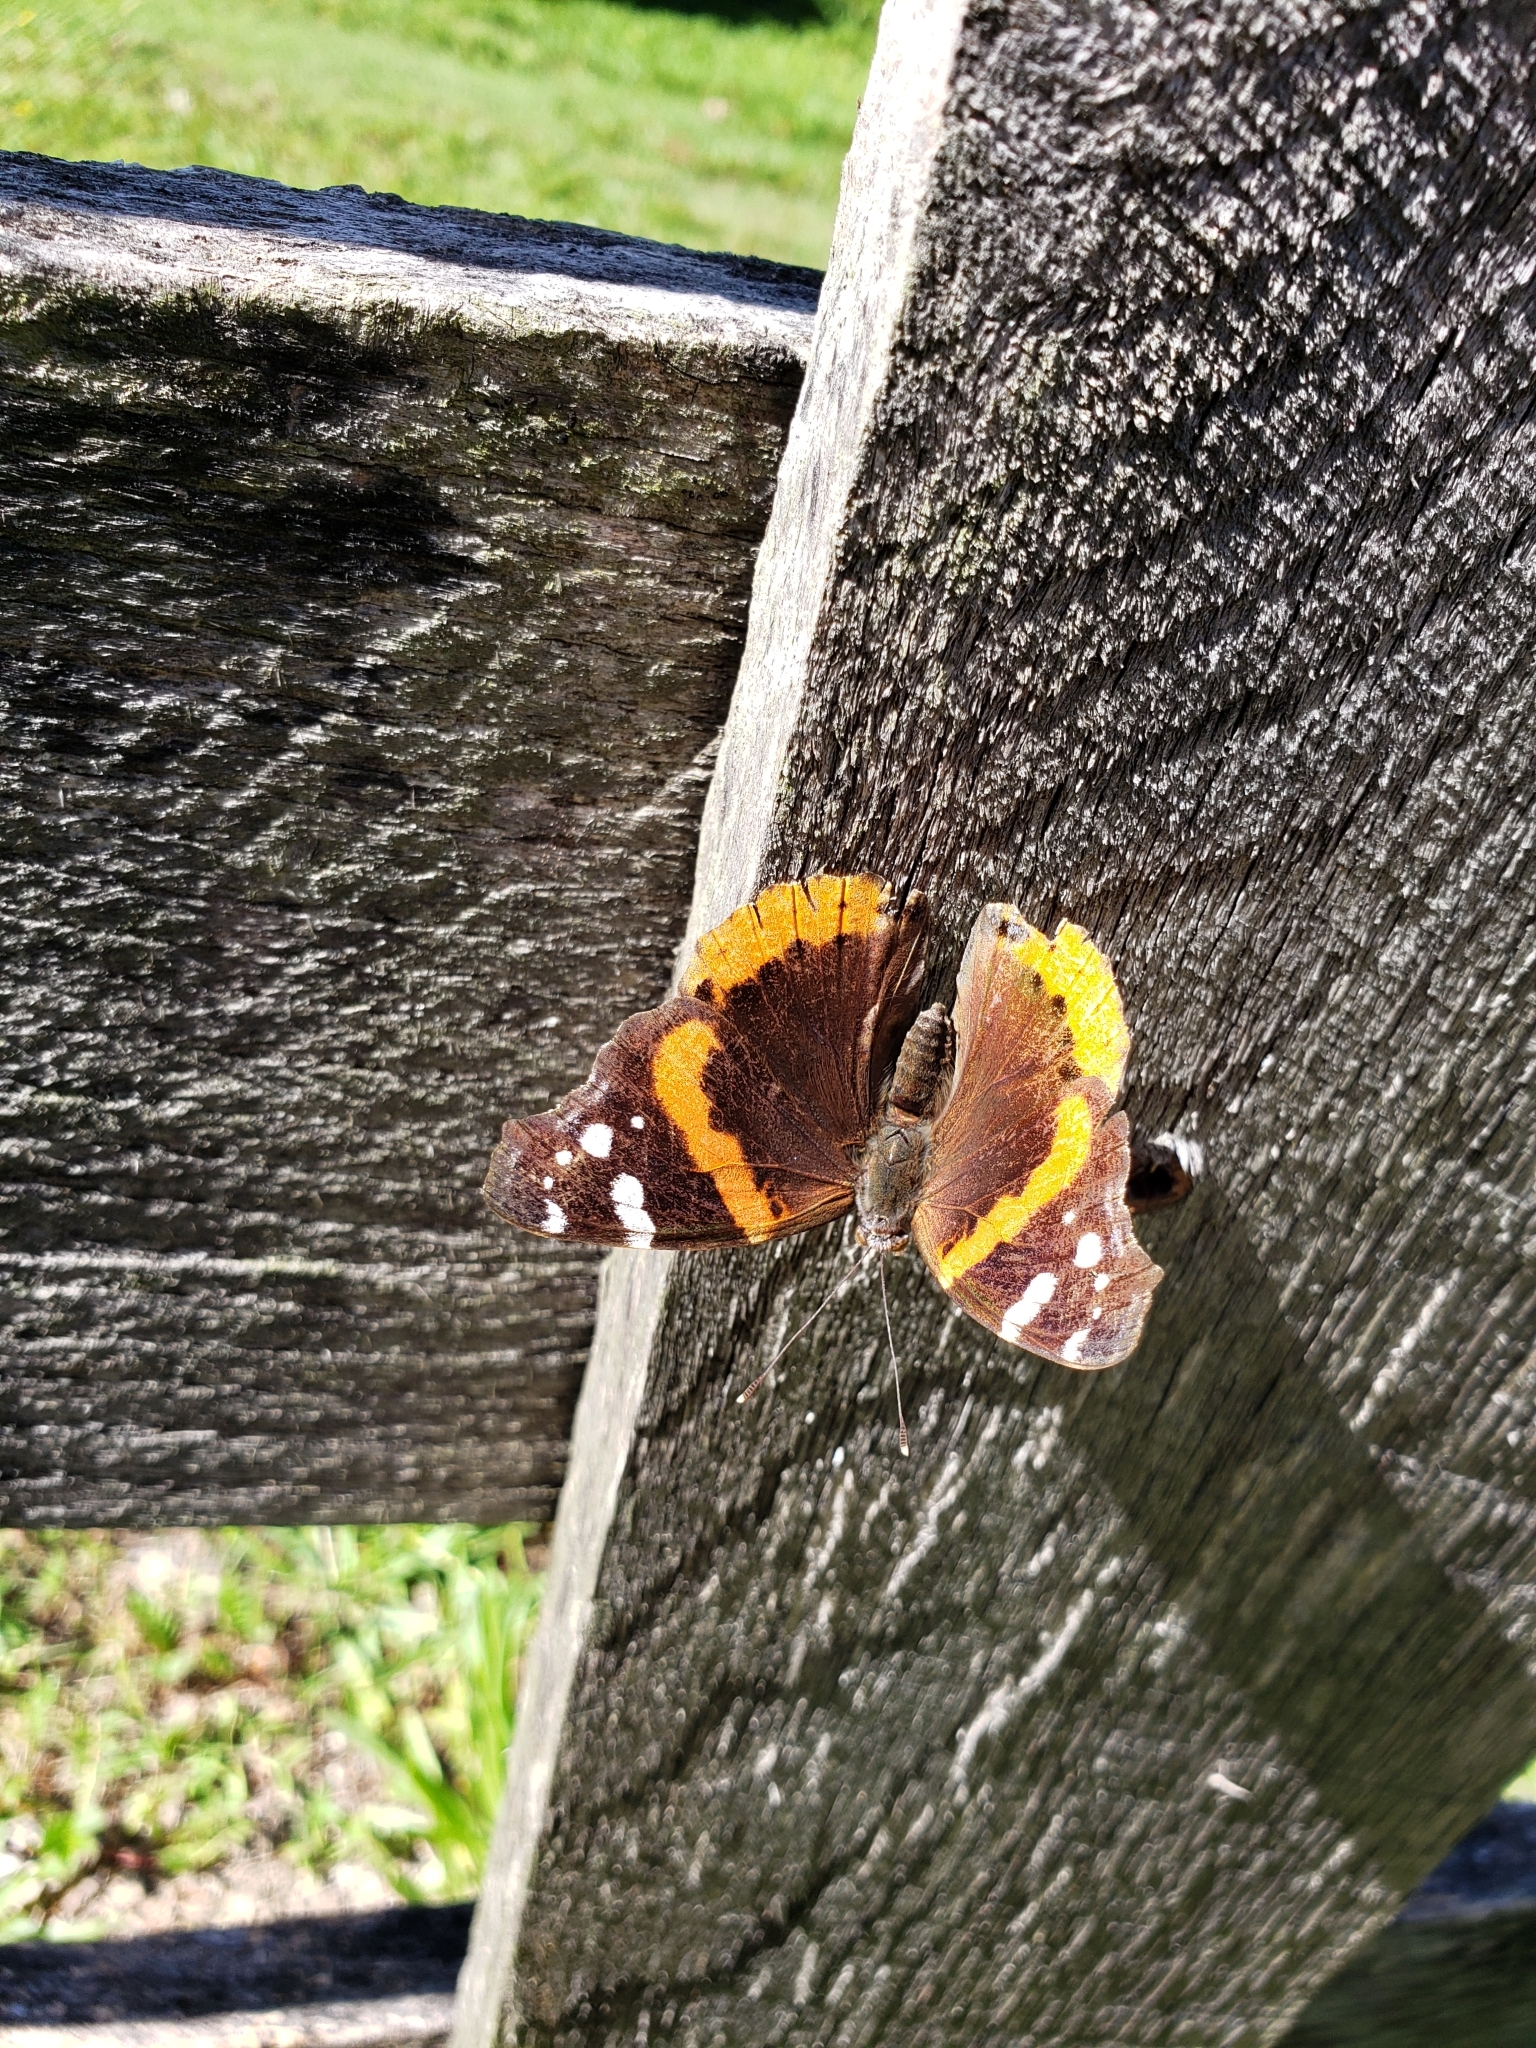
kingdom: Animalia
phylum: Arthropoda
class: Insecta
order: Lepidoptera
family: Nymphalidae
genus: Vanessa
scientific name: Vanessa atalanta
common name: Red admiral
